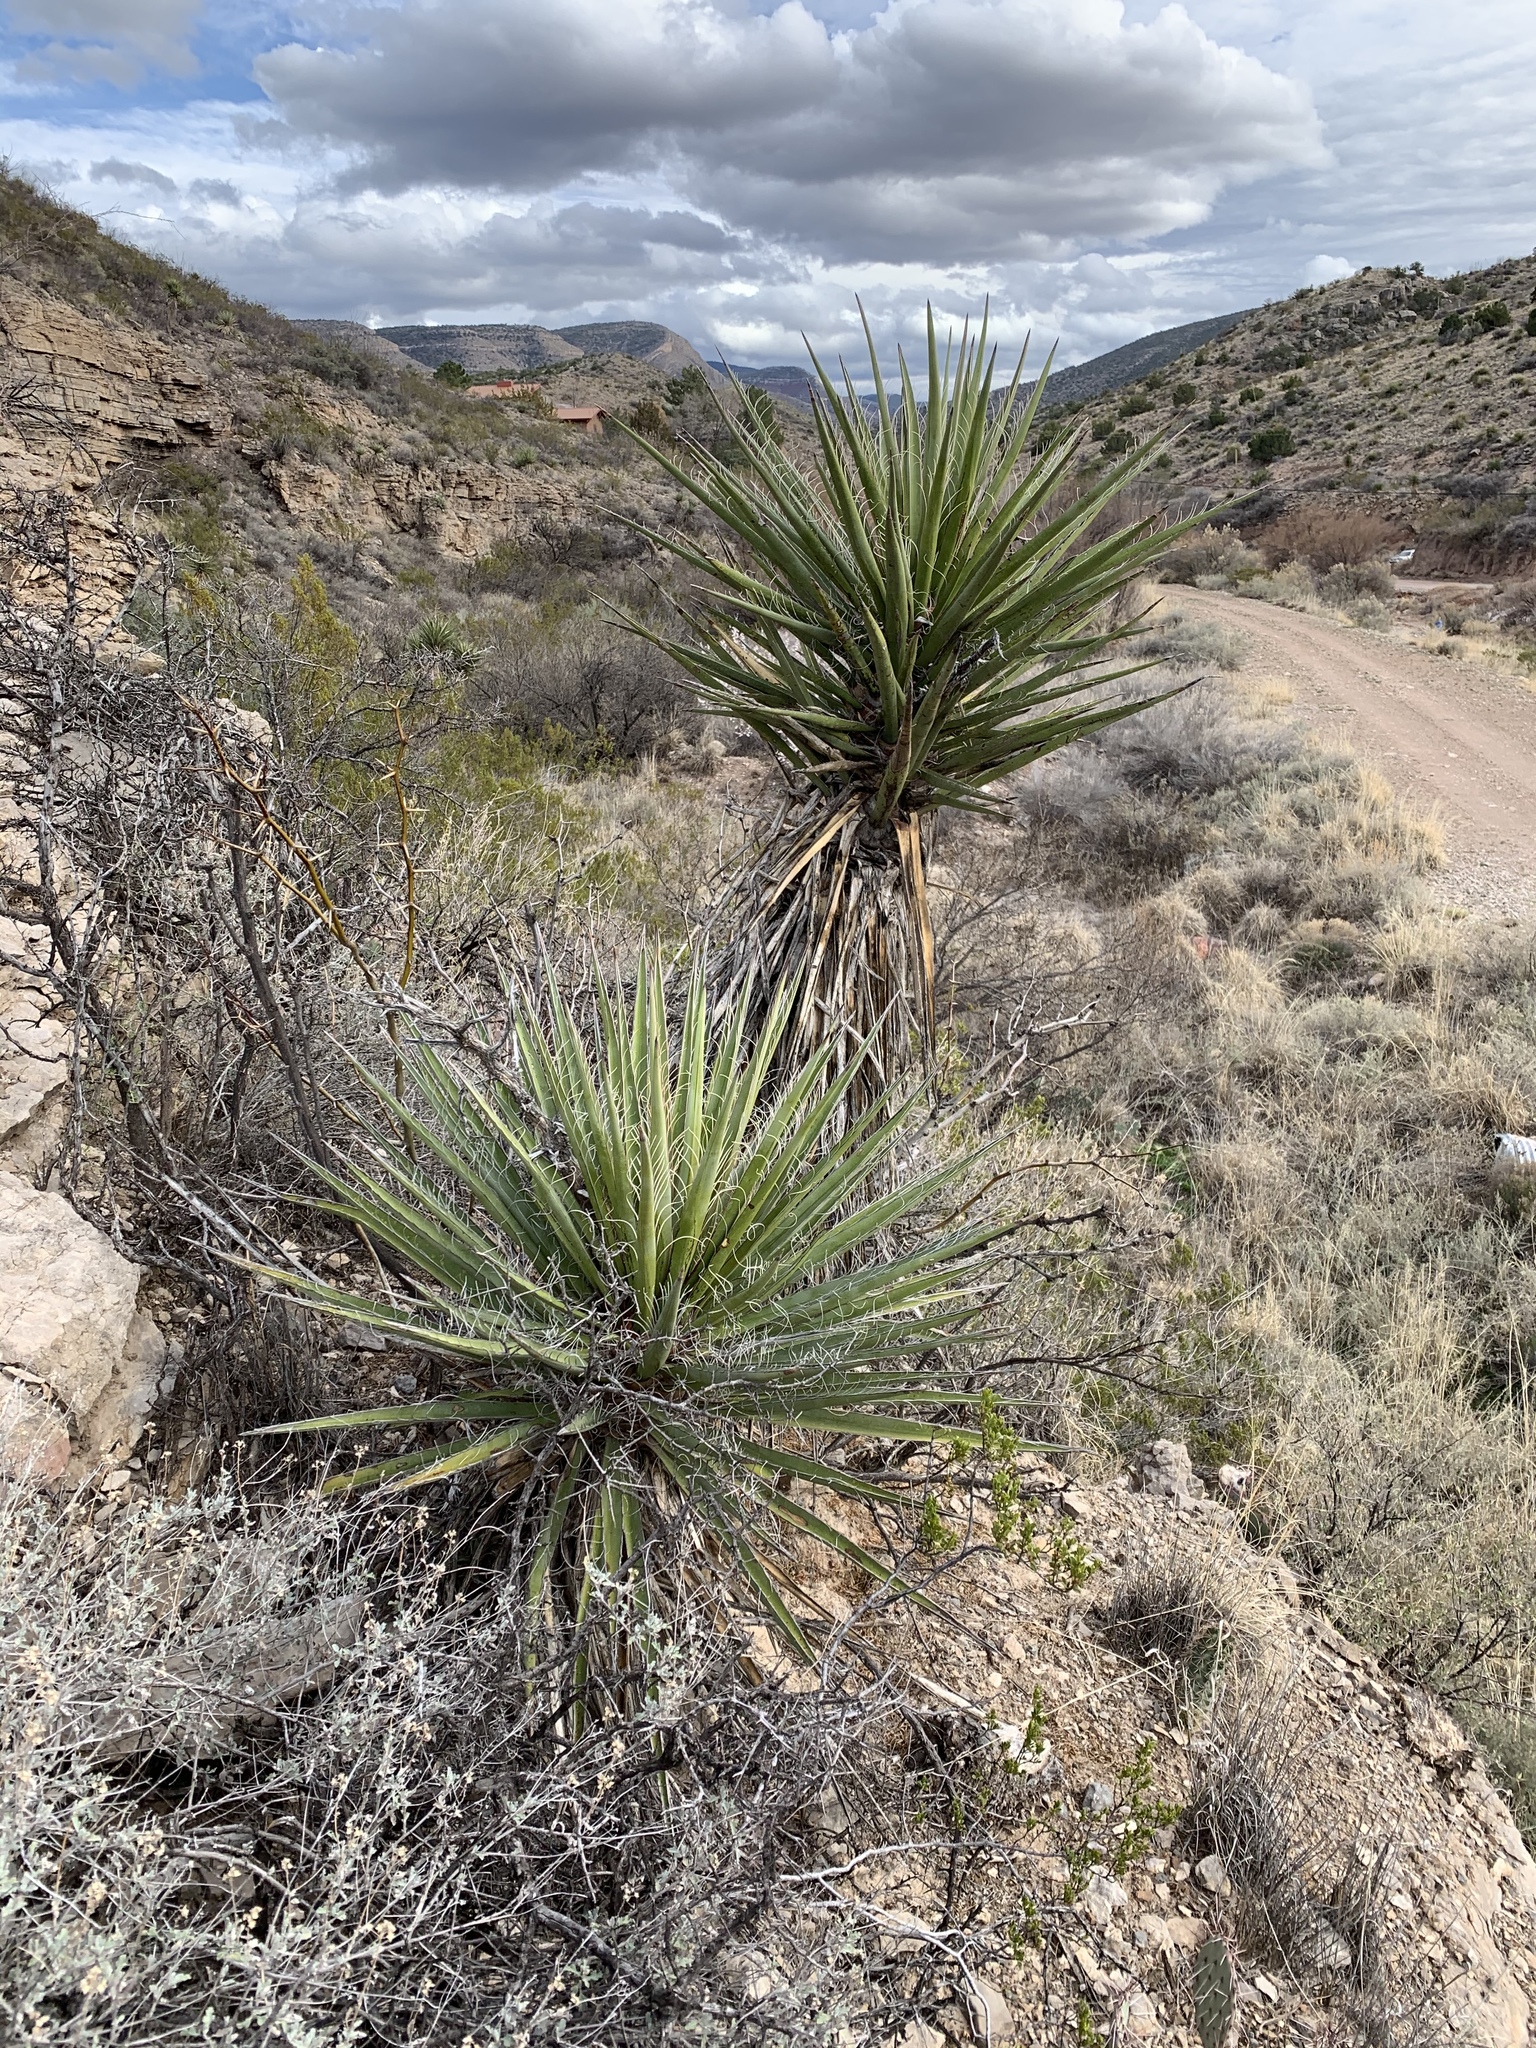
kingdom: Plantae
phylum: Tracheophyta
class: Liliopsida
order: Asparagales
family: Asparagaceae
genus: Yucca
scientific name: Yucca treculiana
